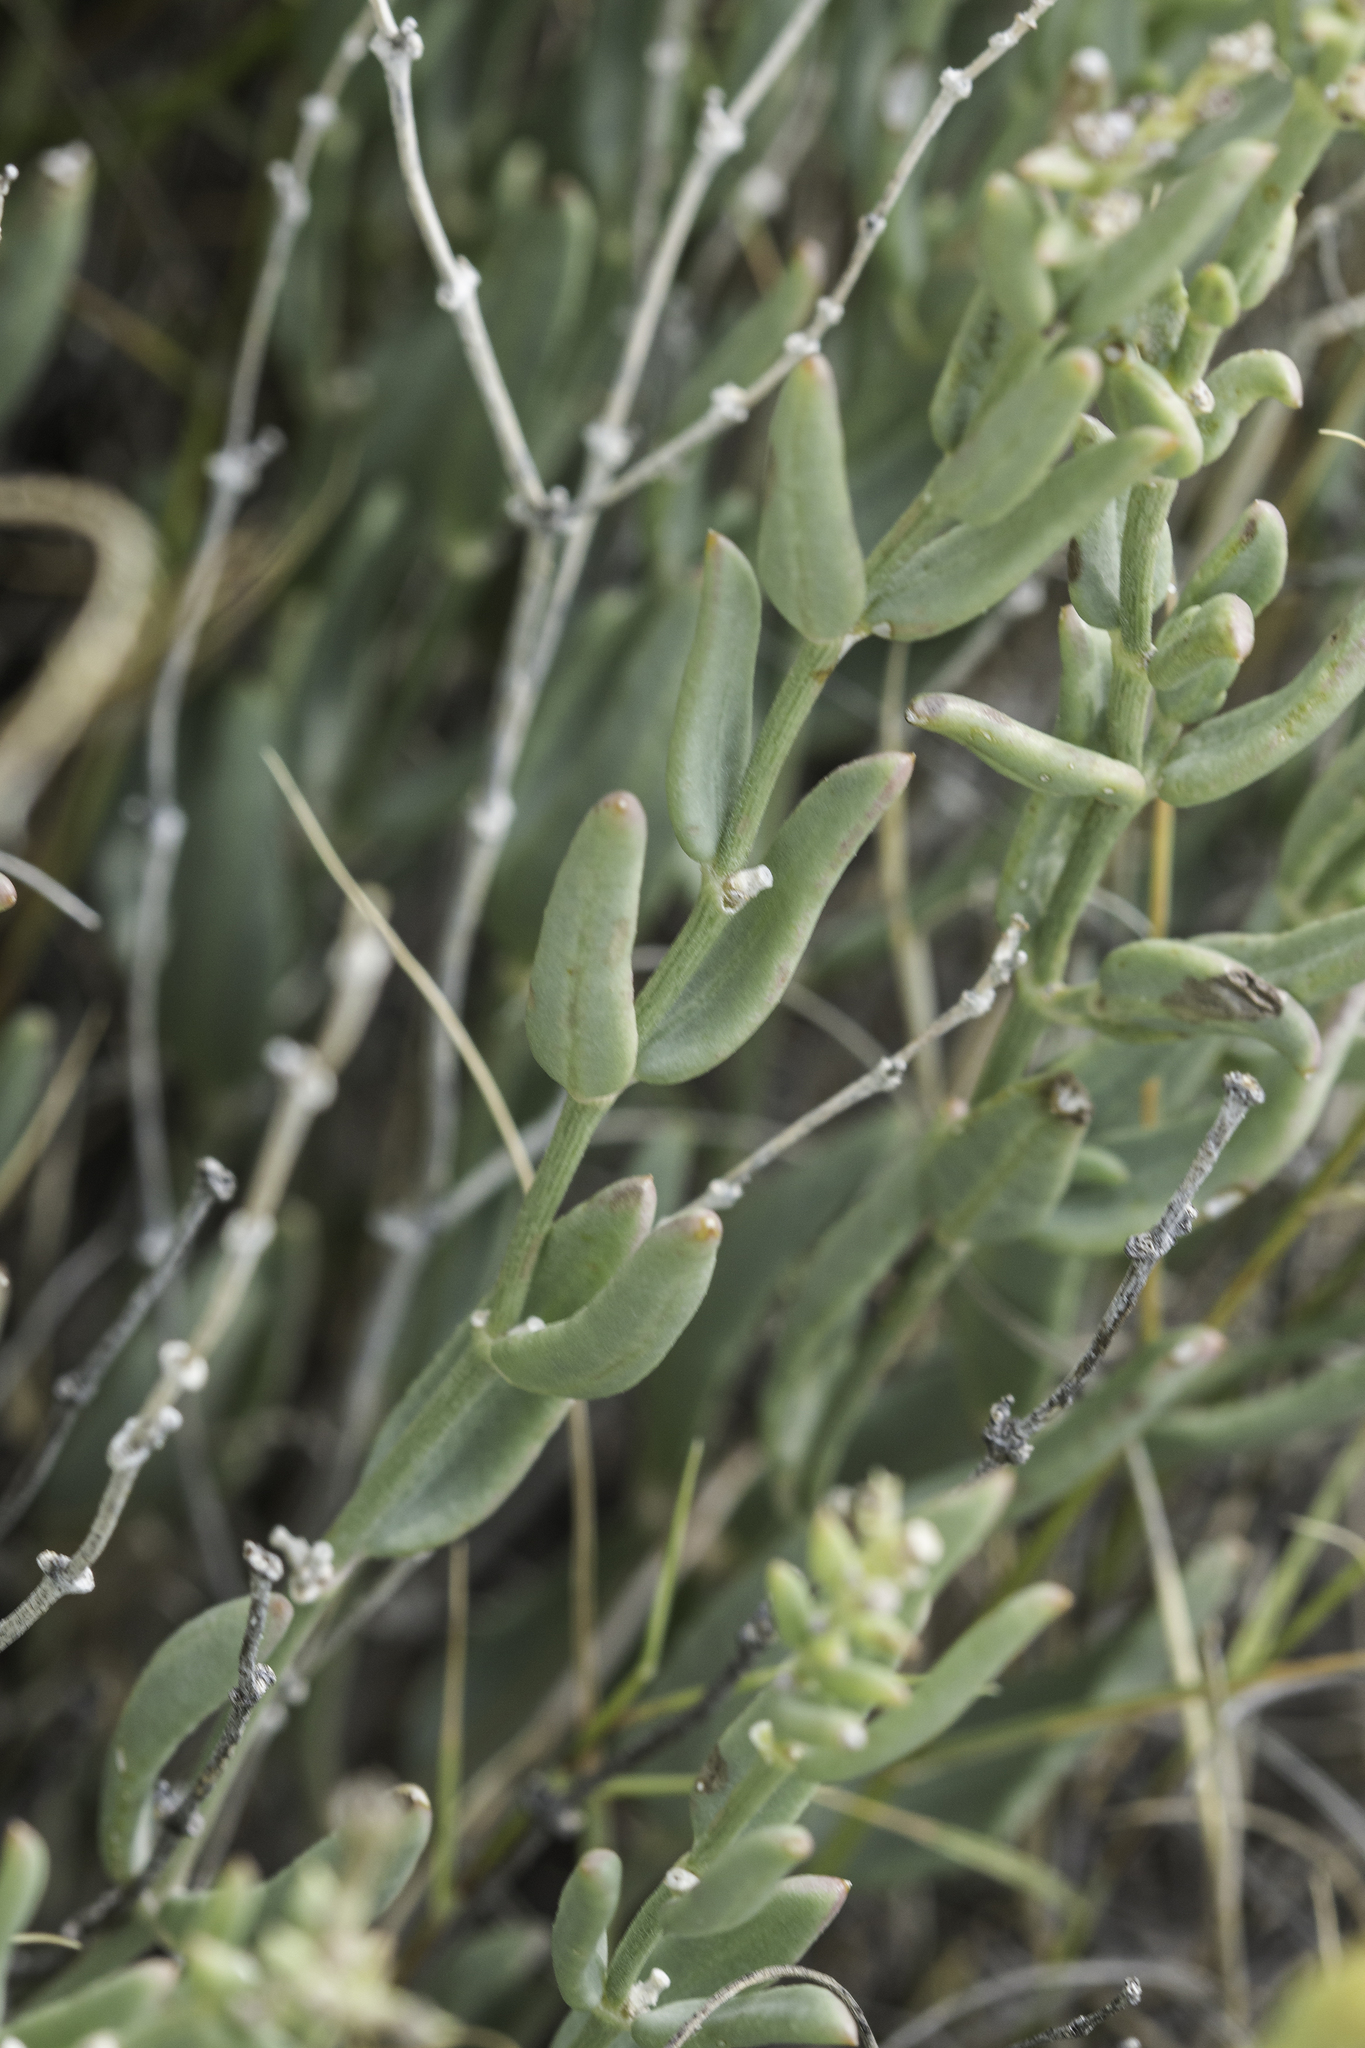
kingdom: Plantae
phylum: Tracheophyta
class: Magnoliopsida
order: Caryophyllales
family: Nyctaginaceae
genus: Acleisanthes
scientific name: Acleisanthes lanceolata
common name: Gypsum moonpod
